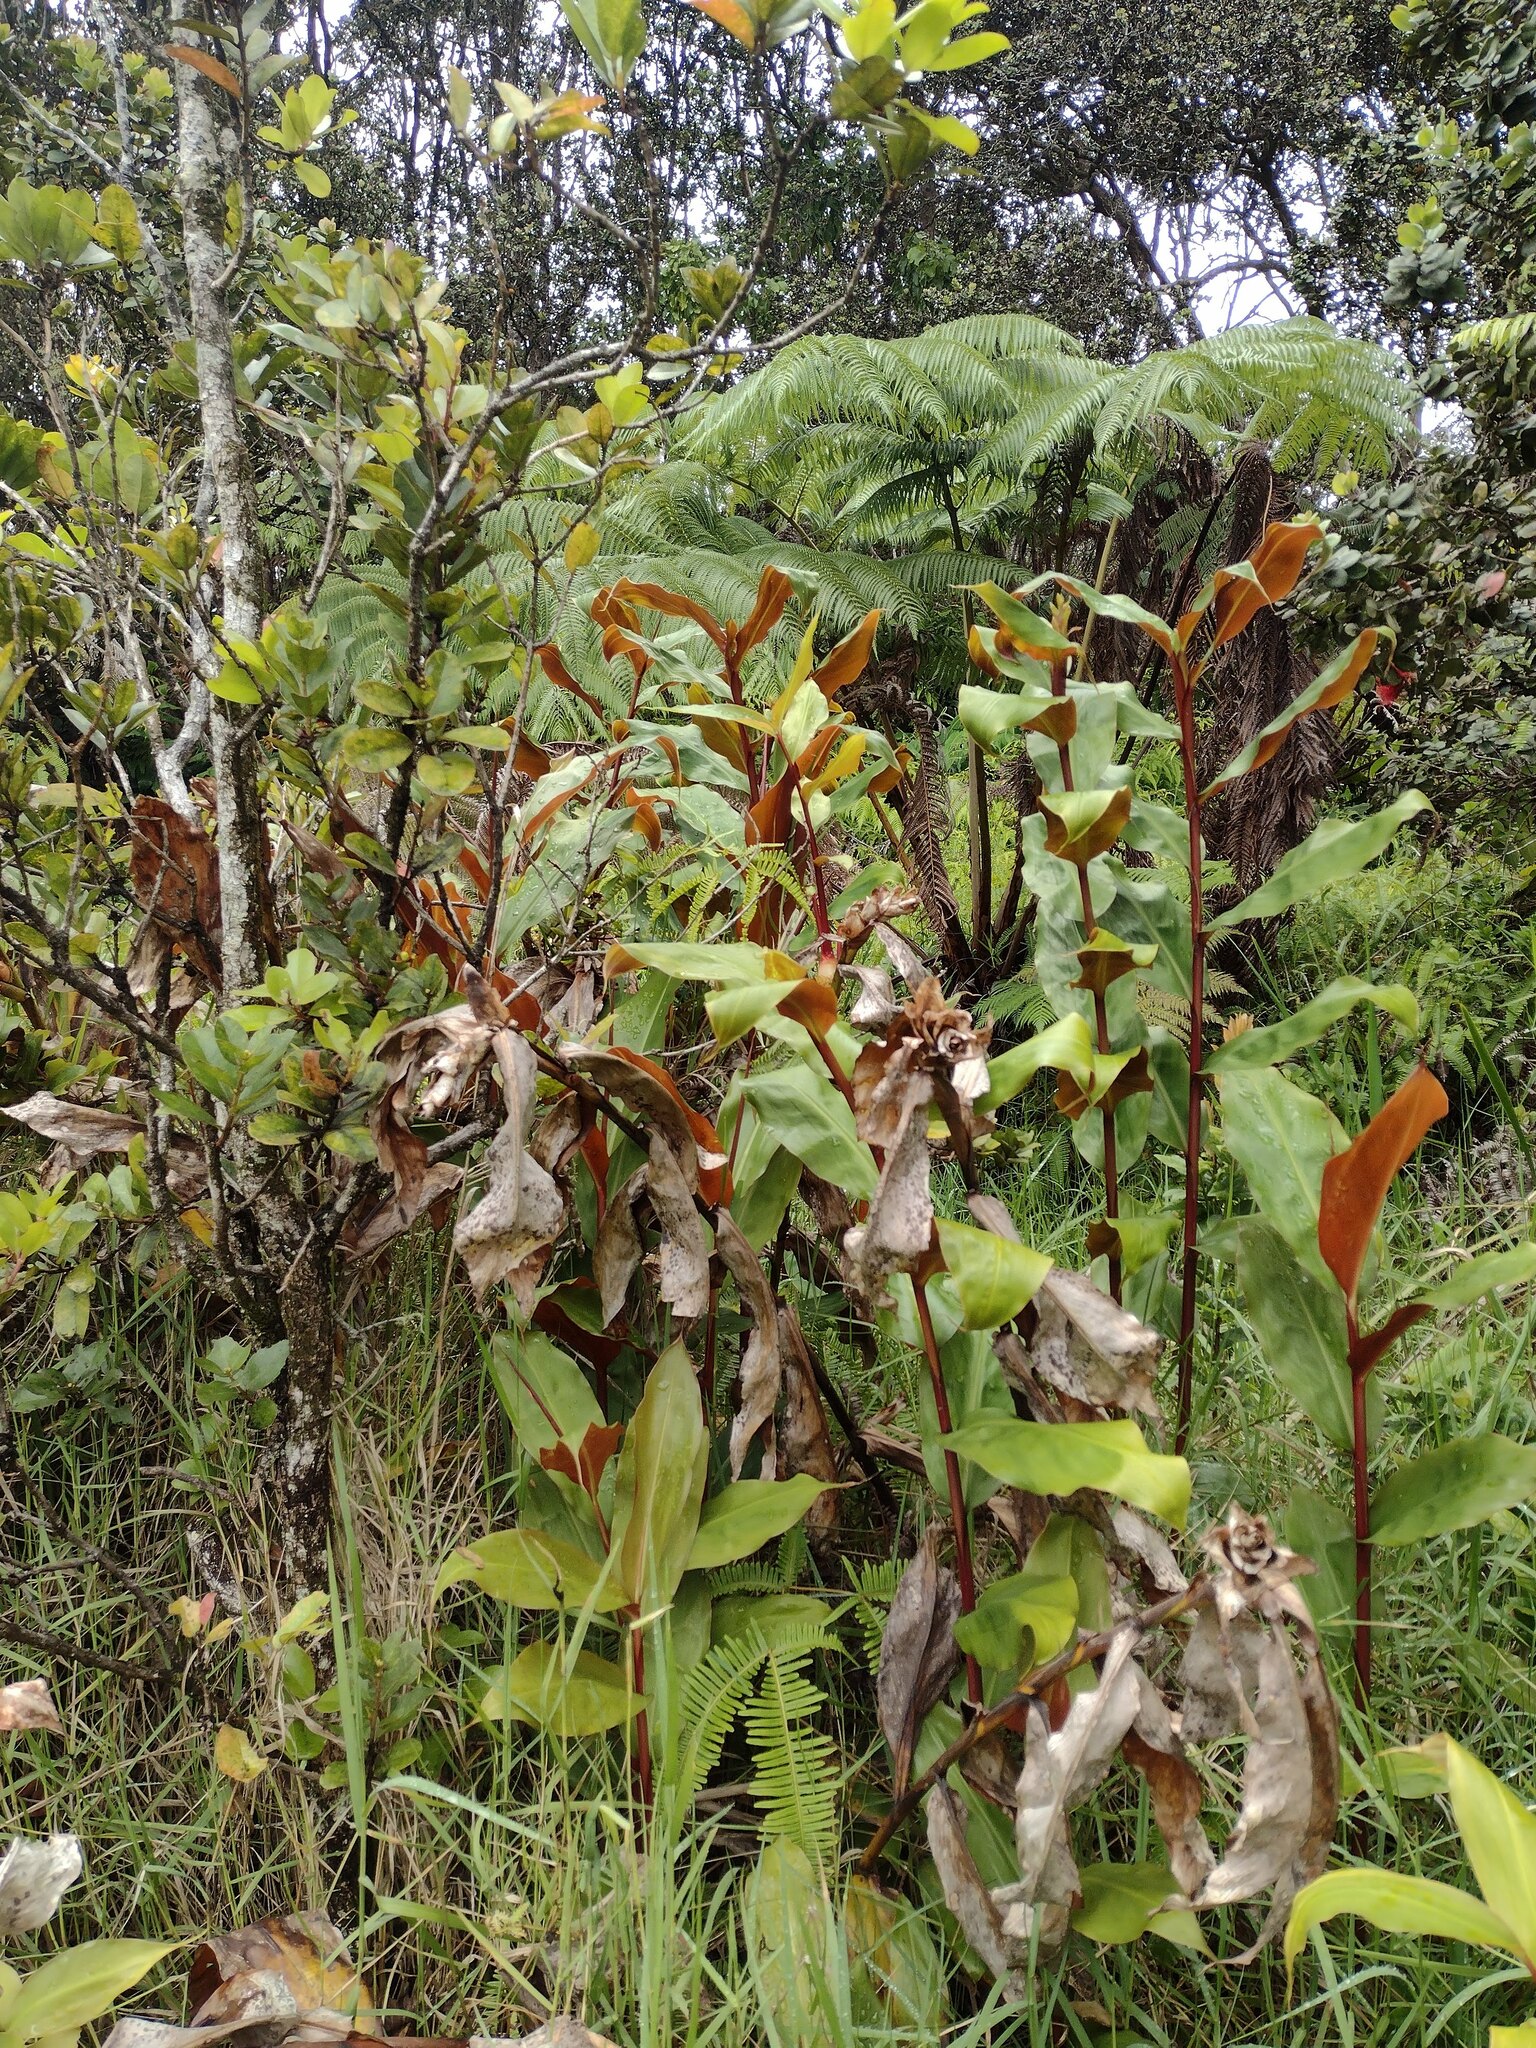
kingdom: Plantae
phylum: Tracheophyta
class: Liliopsida
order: Zingiberales
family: Zingiberaceae
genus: Hedychium
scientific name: Hedychium greenii
